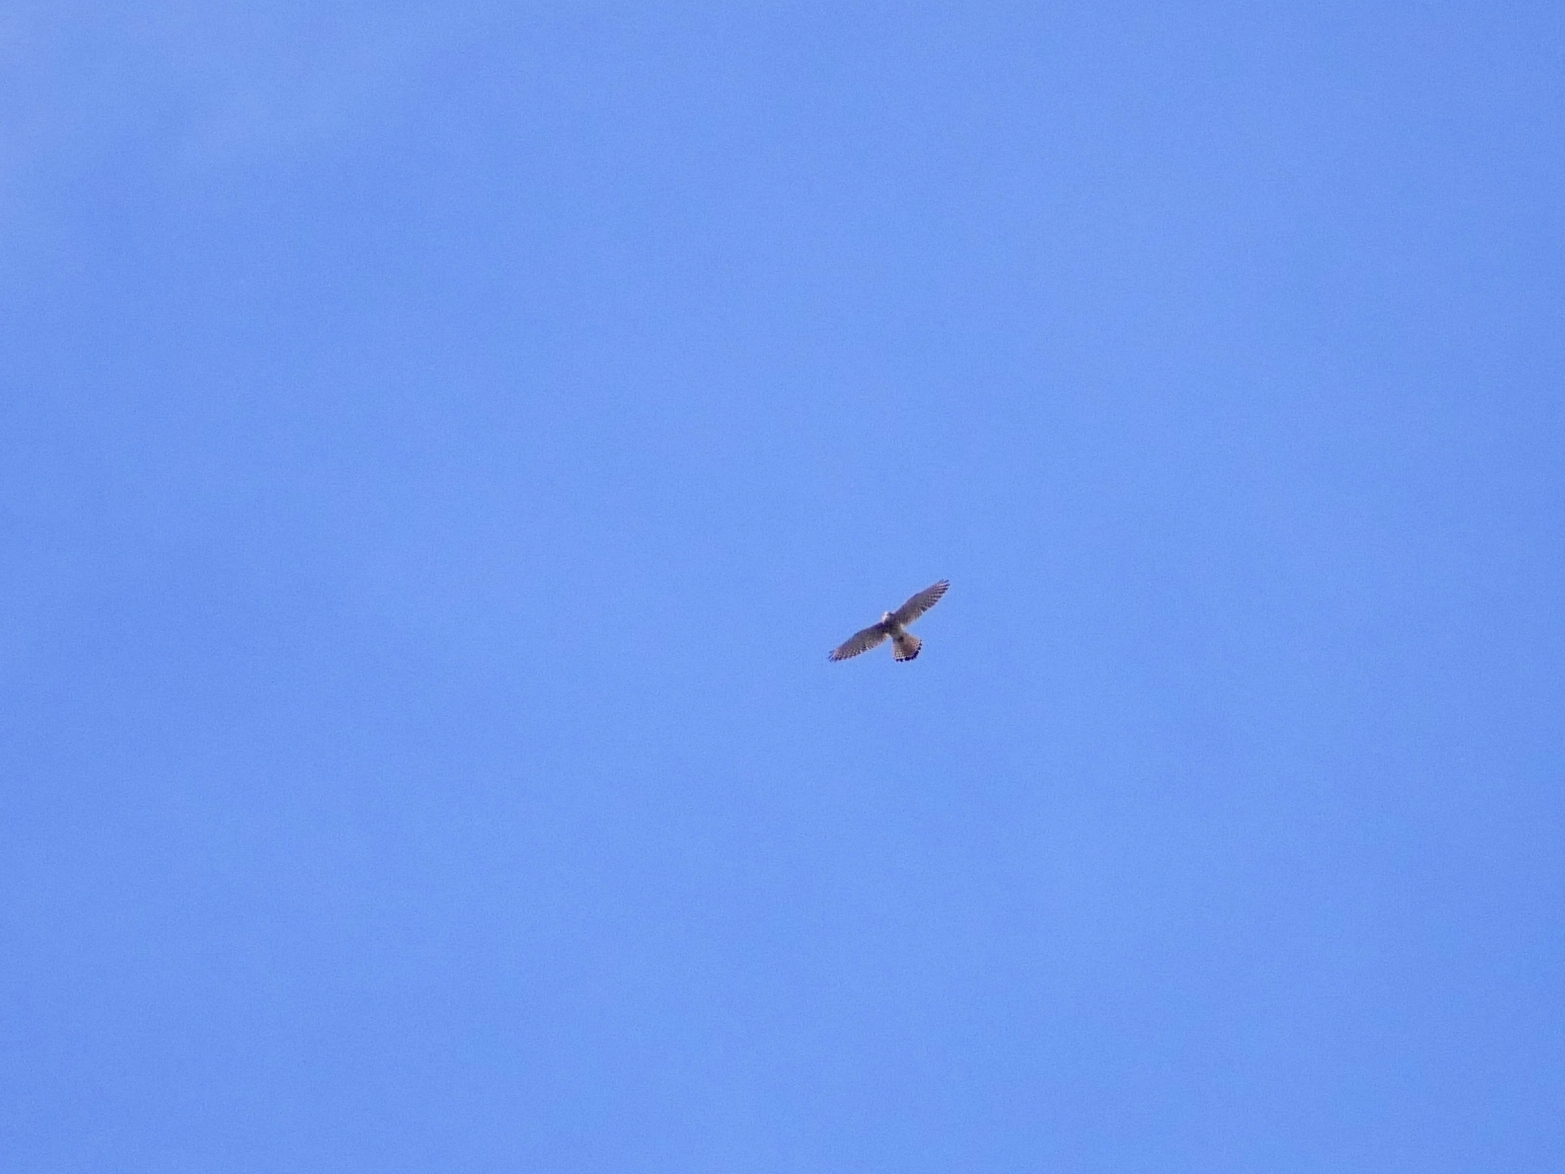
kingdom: Animalia
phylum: Chordata
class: Aves
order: Falconiformes
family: Falconidae
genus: Falco
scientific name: Falco tinnunculus
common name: Common kestrel
